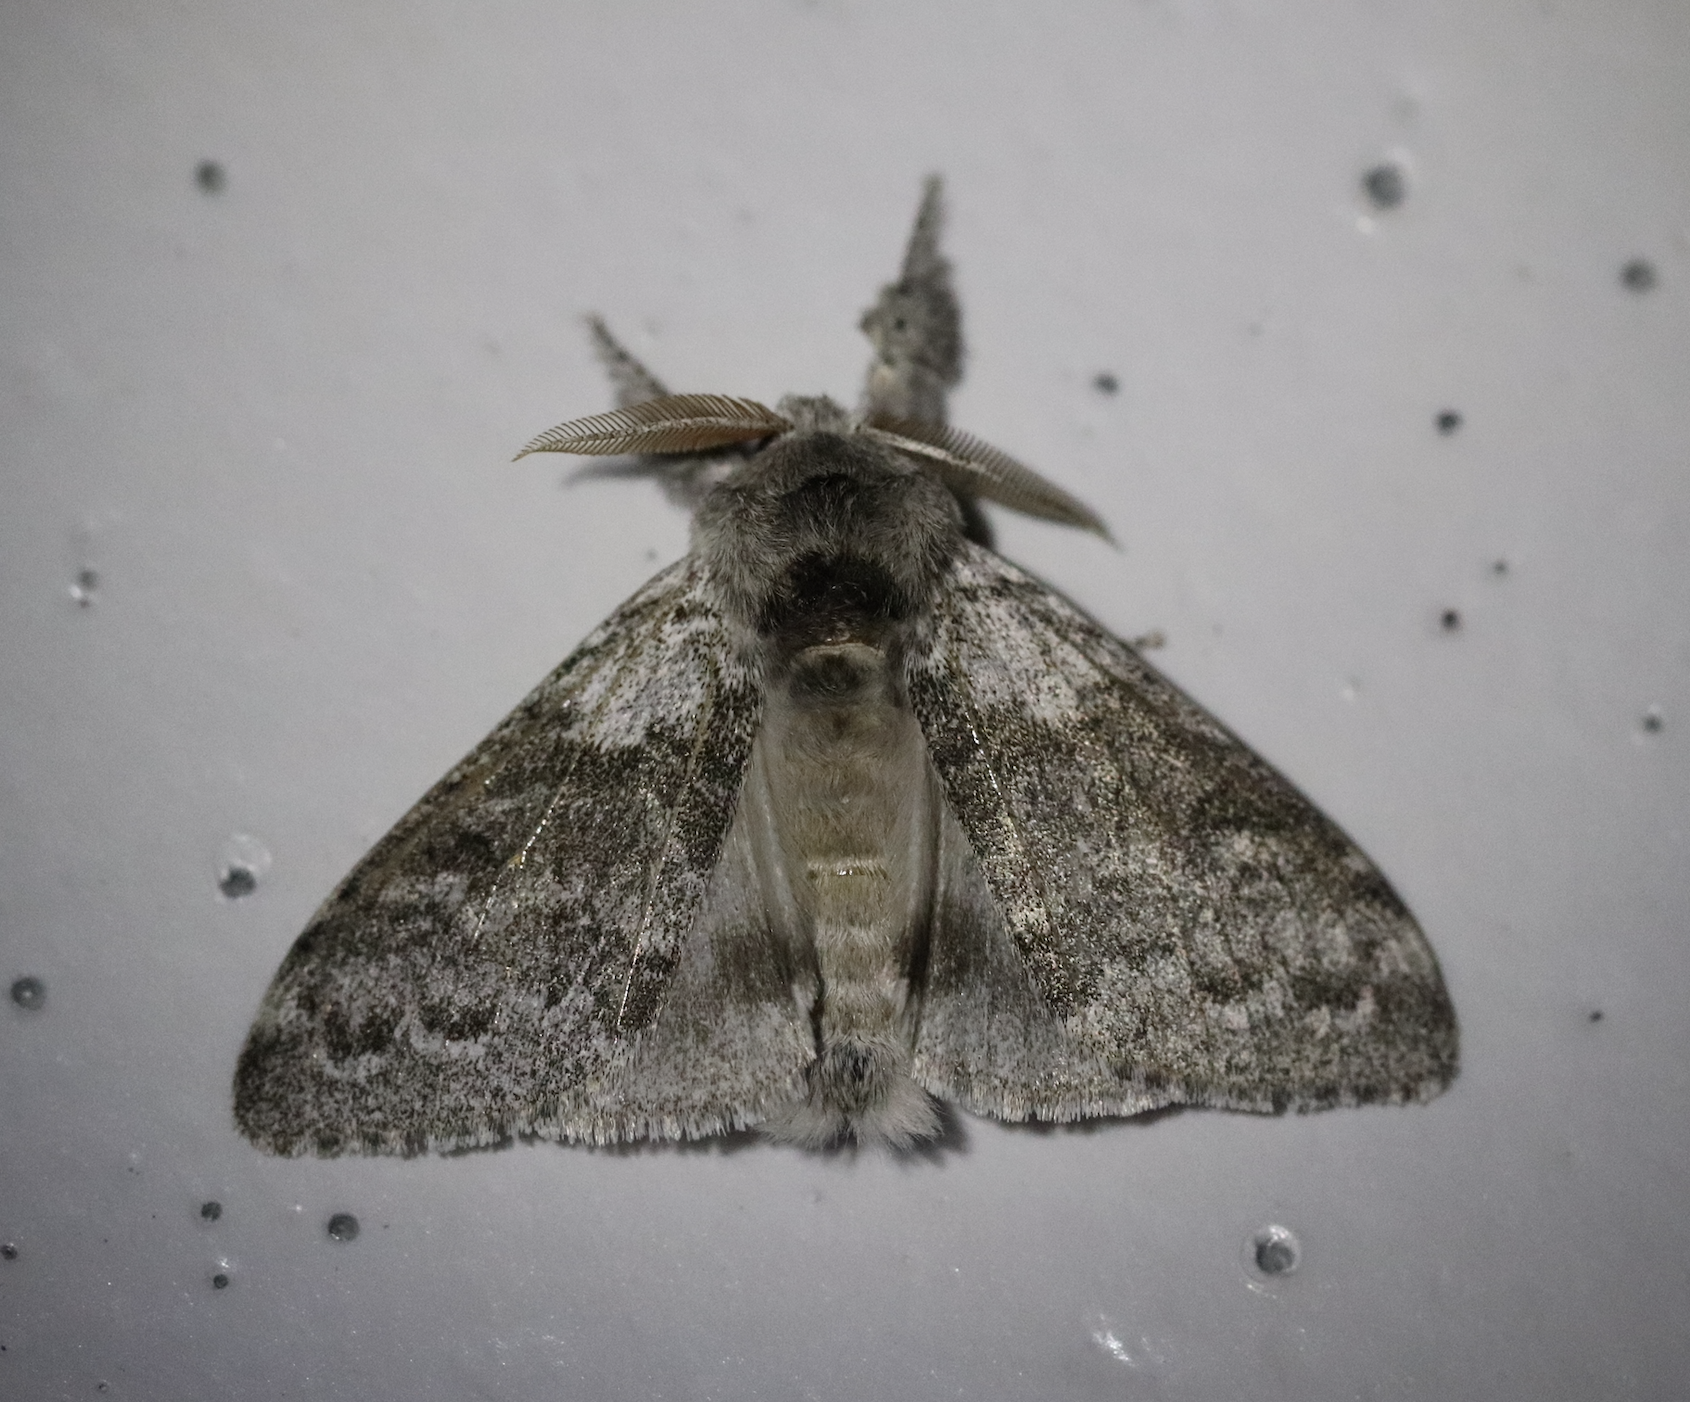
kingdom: Animalia
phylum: Arthropoda
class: Insecta
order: Lepidoptera
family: Erebidae
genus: Calliteara
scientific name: Calliteara pudibunda
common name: Pale tussock
